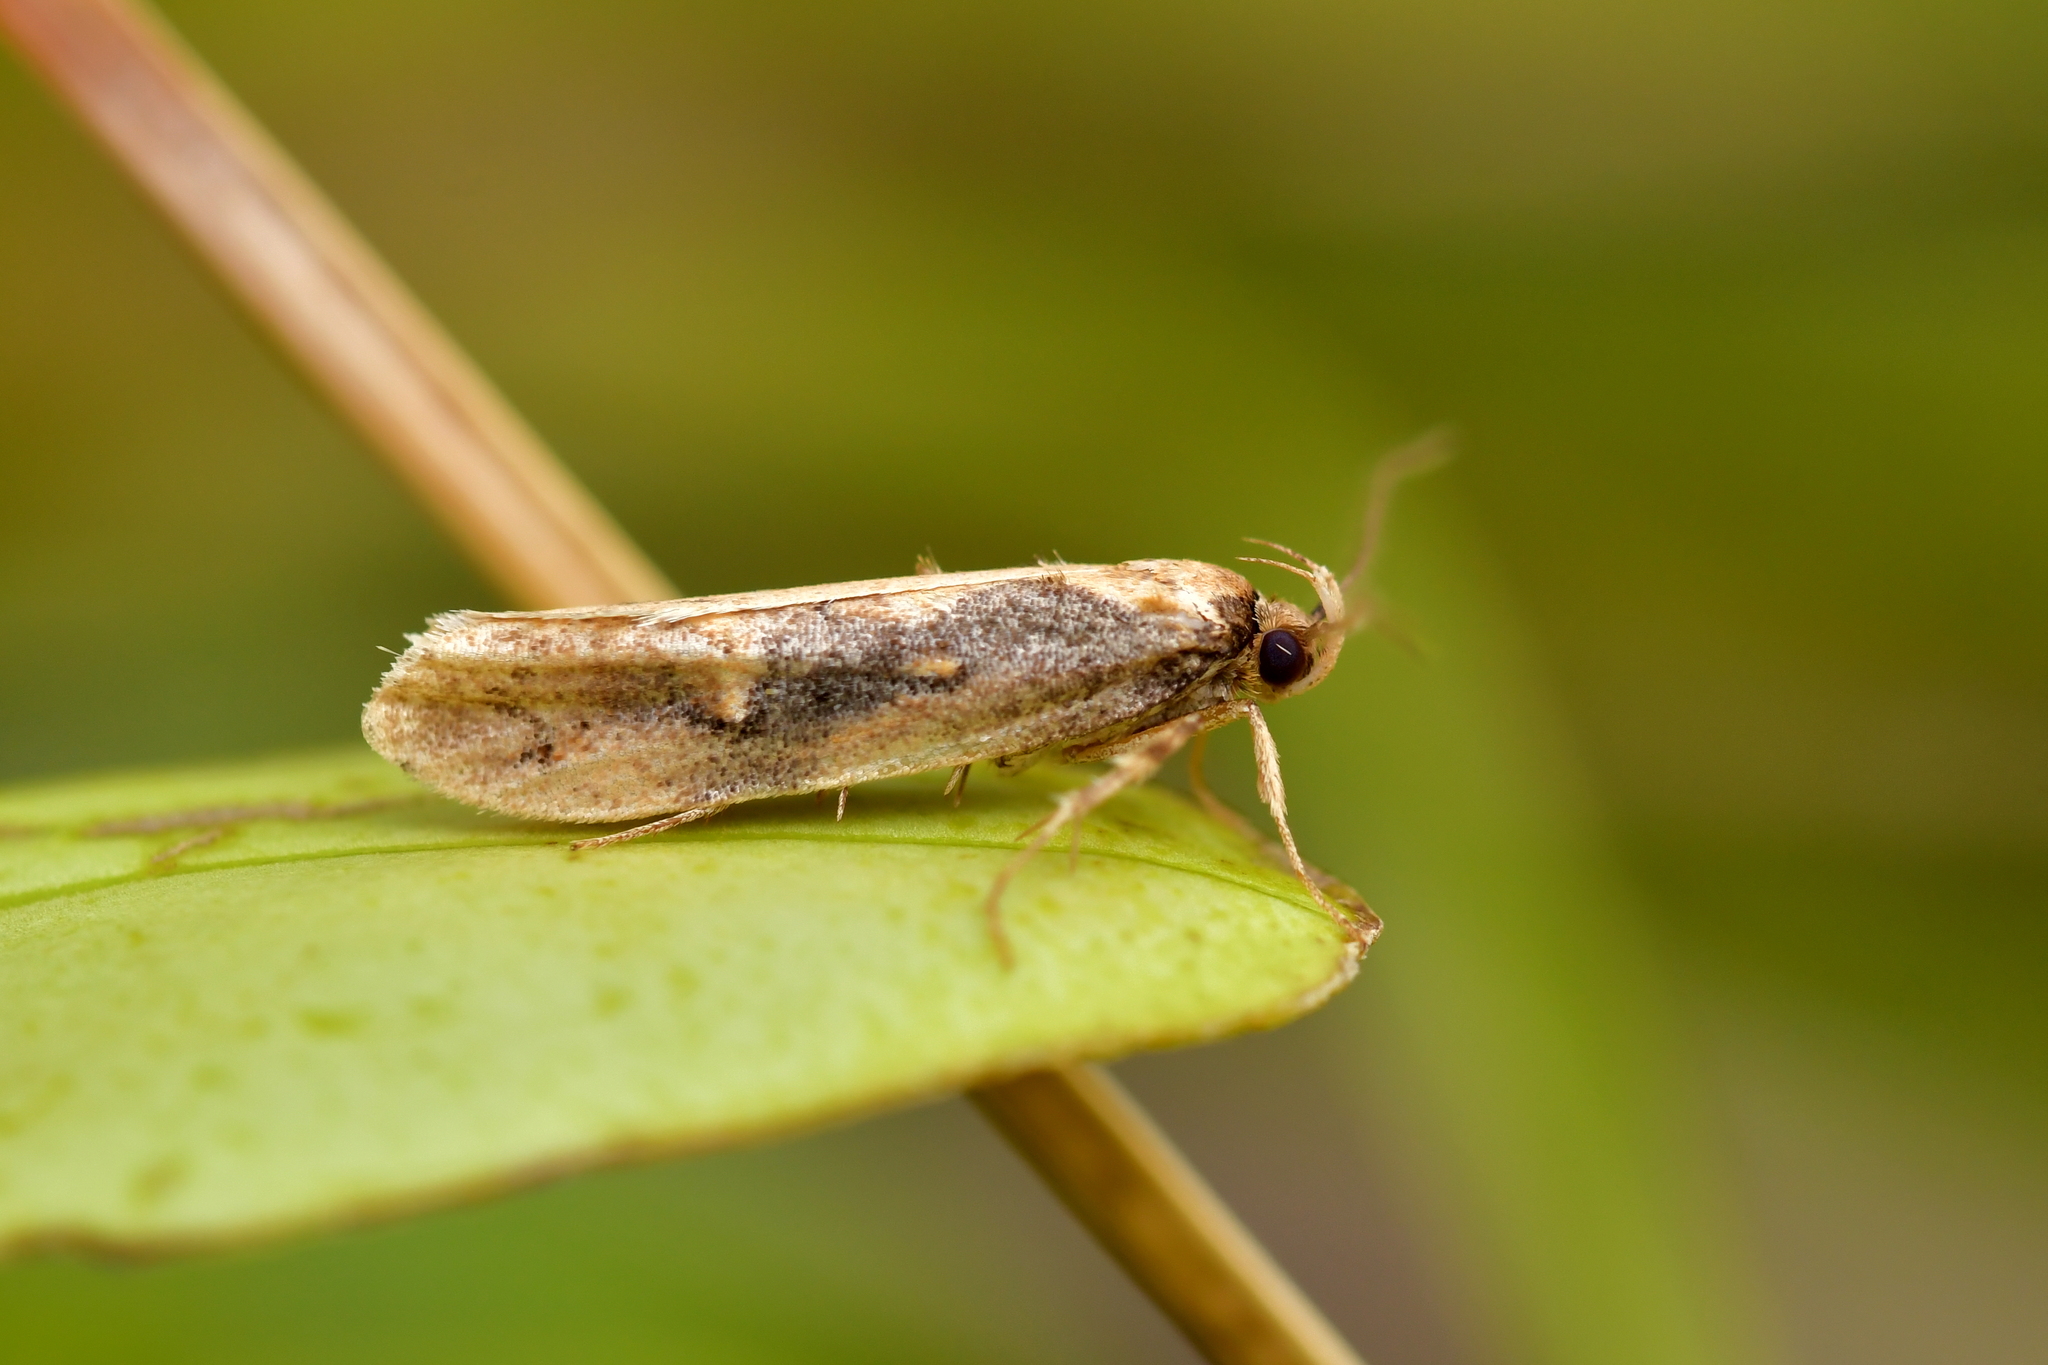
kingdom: Animalia
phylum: Arthropoda
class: Insecta
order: Lepidoptera
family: Oecophoridae
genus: Atomotricha
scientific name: Atomotricha isogama
